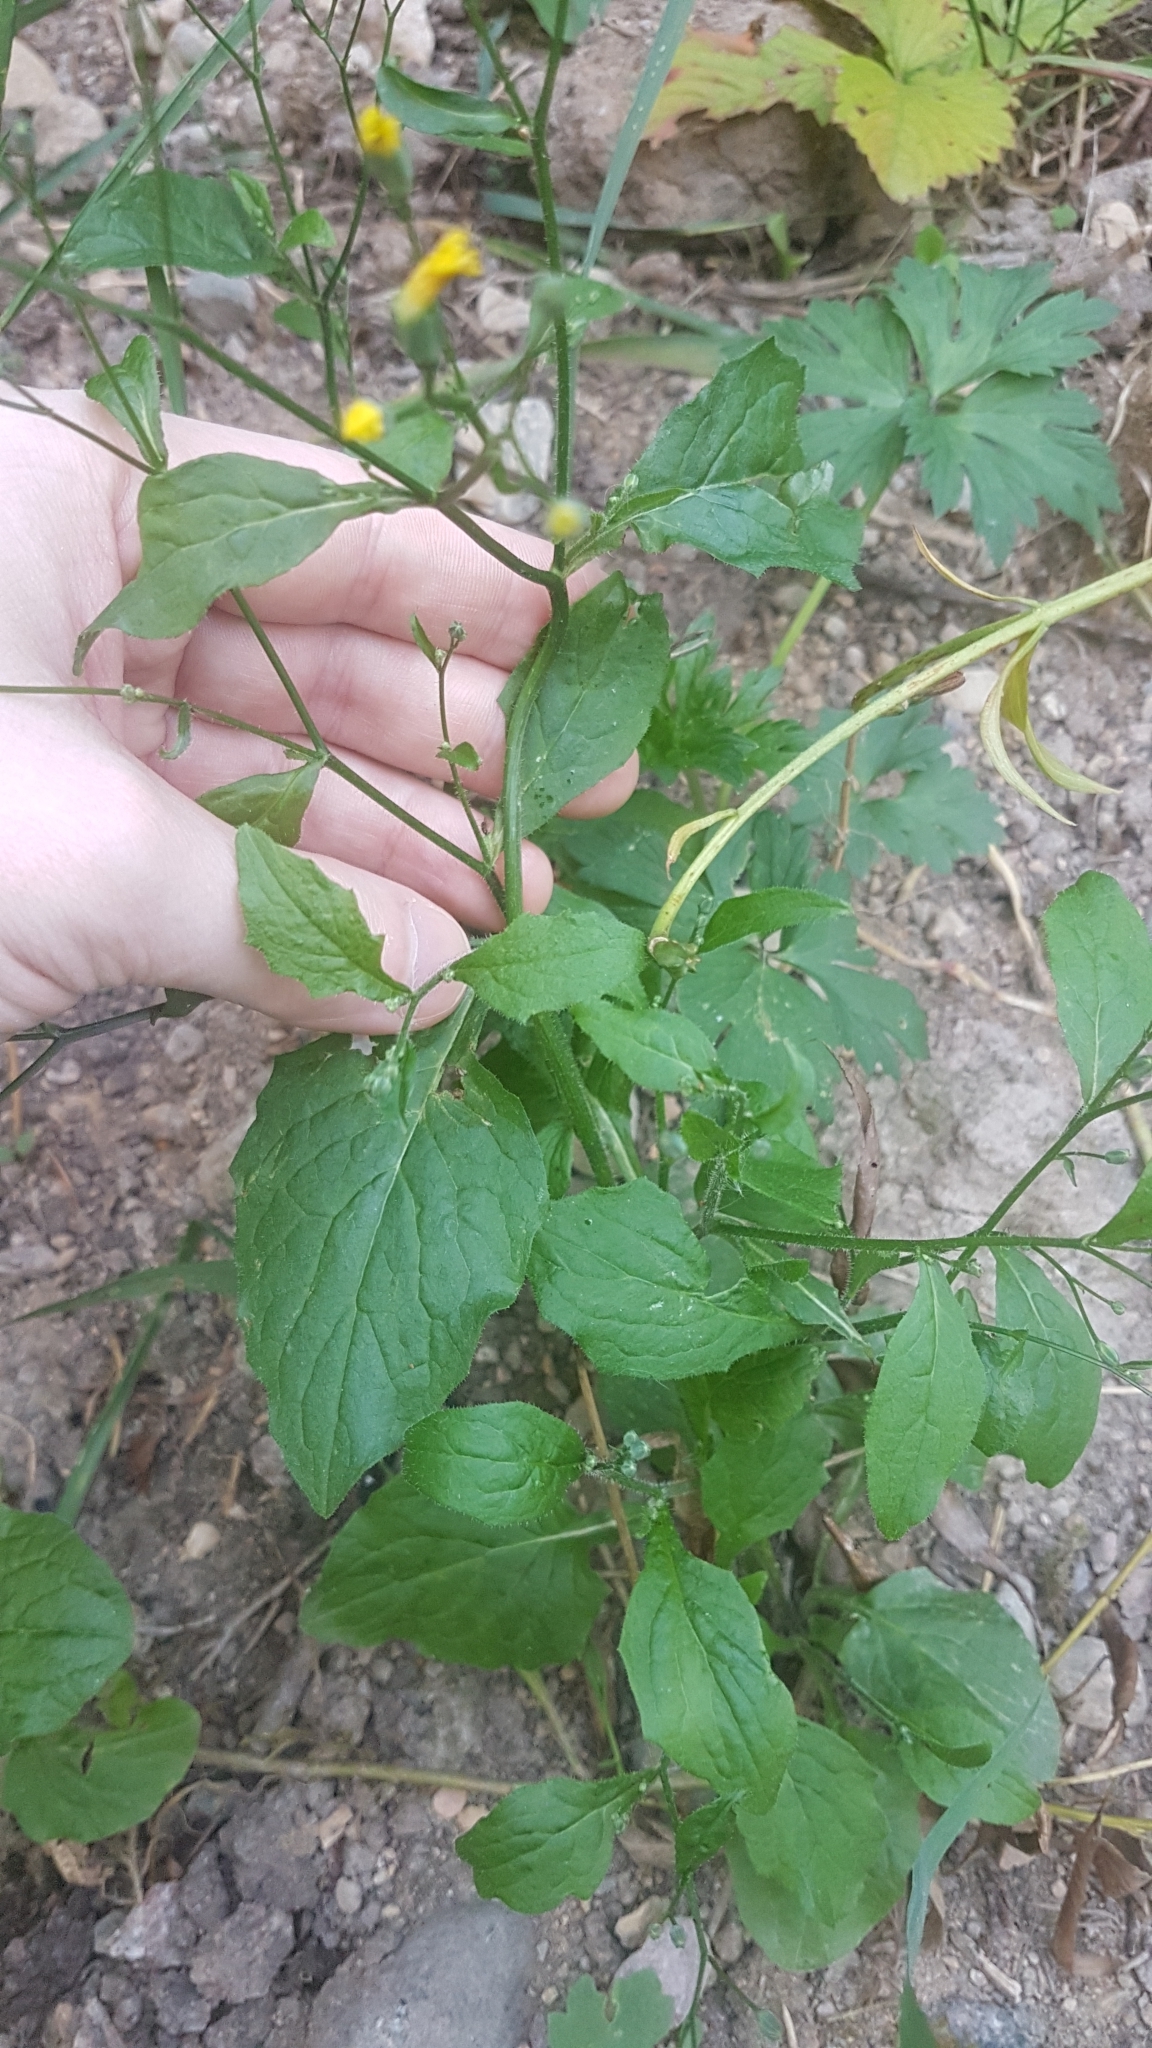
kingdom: Plantae
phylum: Tracheophyta
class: Magnoliopsida
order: Asterales
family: Asteraceae
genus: Lapsana
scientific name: Lapsana communis
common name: Nipplewort
